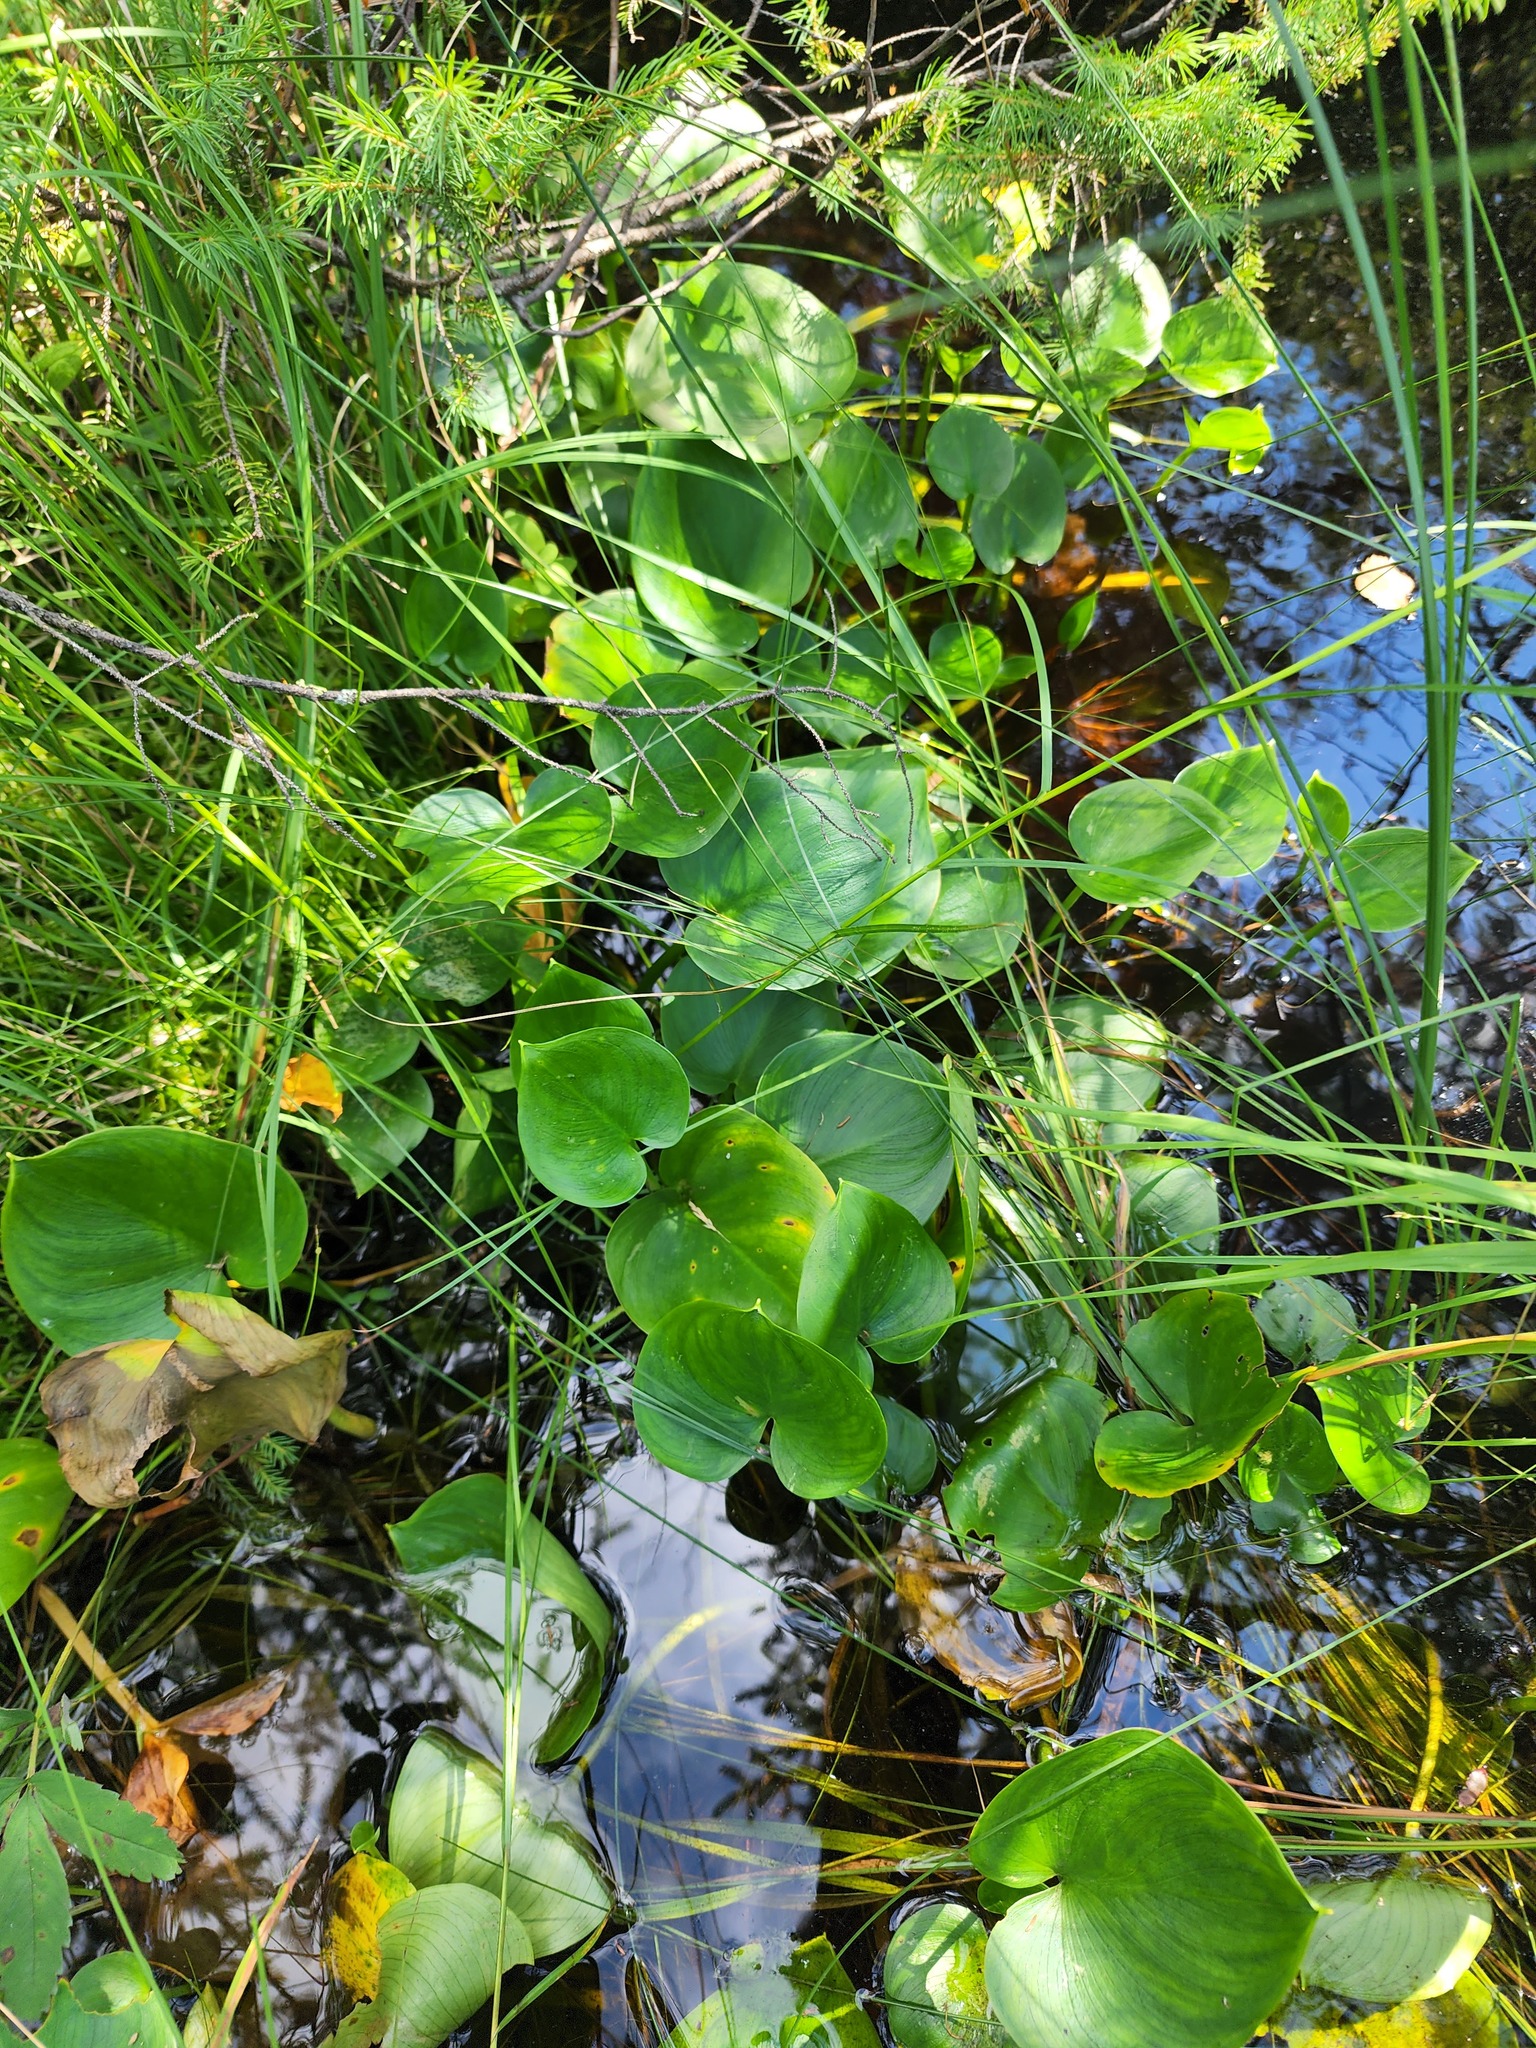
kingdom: Plantae
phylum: Tracheophyta
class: Liliopsida
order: Alismatales
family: Araceae
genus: Calla
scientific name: Calla palustris
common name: Bog arum
